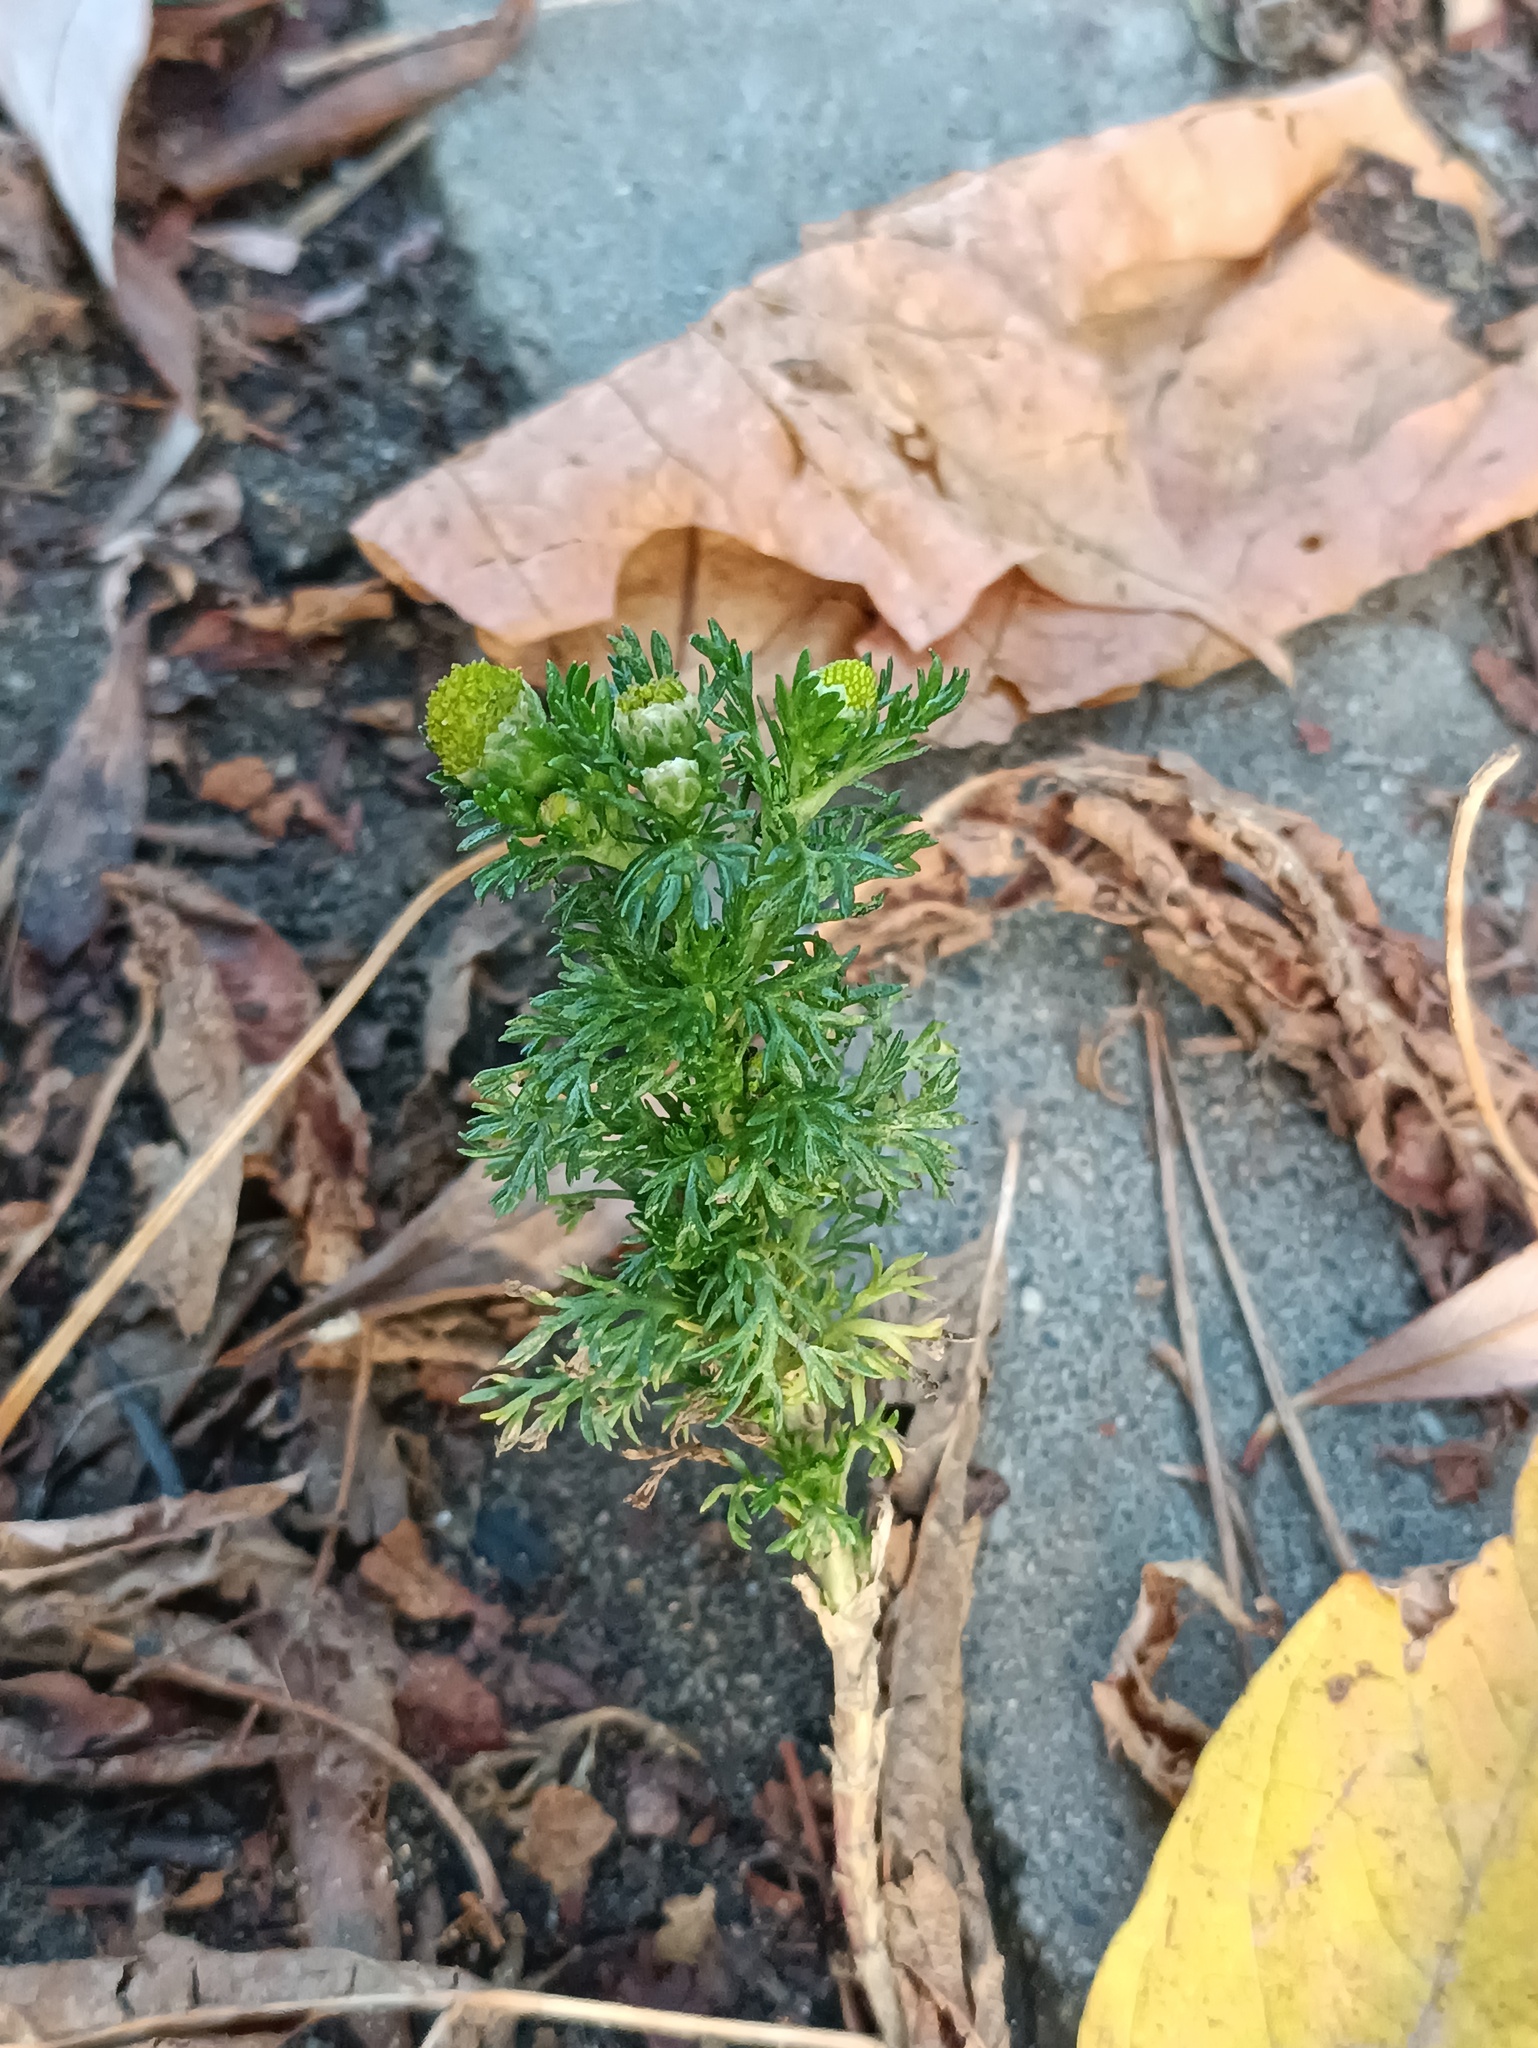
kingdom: Plantae
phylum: Tracheophyta
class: Magnoliopsida
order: Asterales
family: Asteraceae
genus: Matricaria
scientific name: Matricaria discoidea
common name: Disc mayweed
